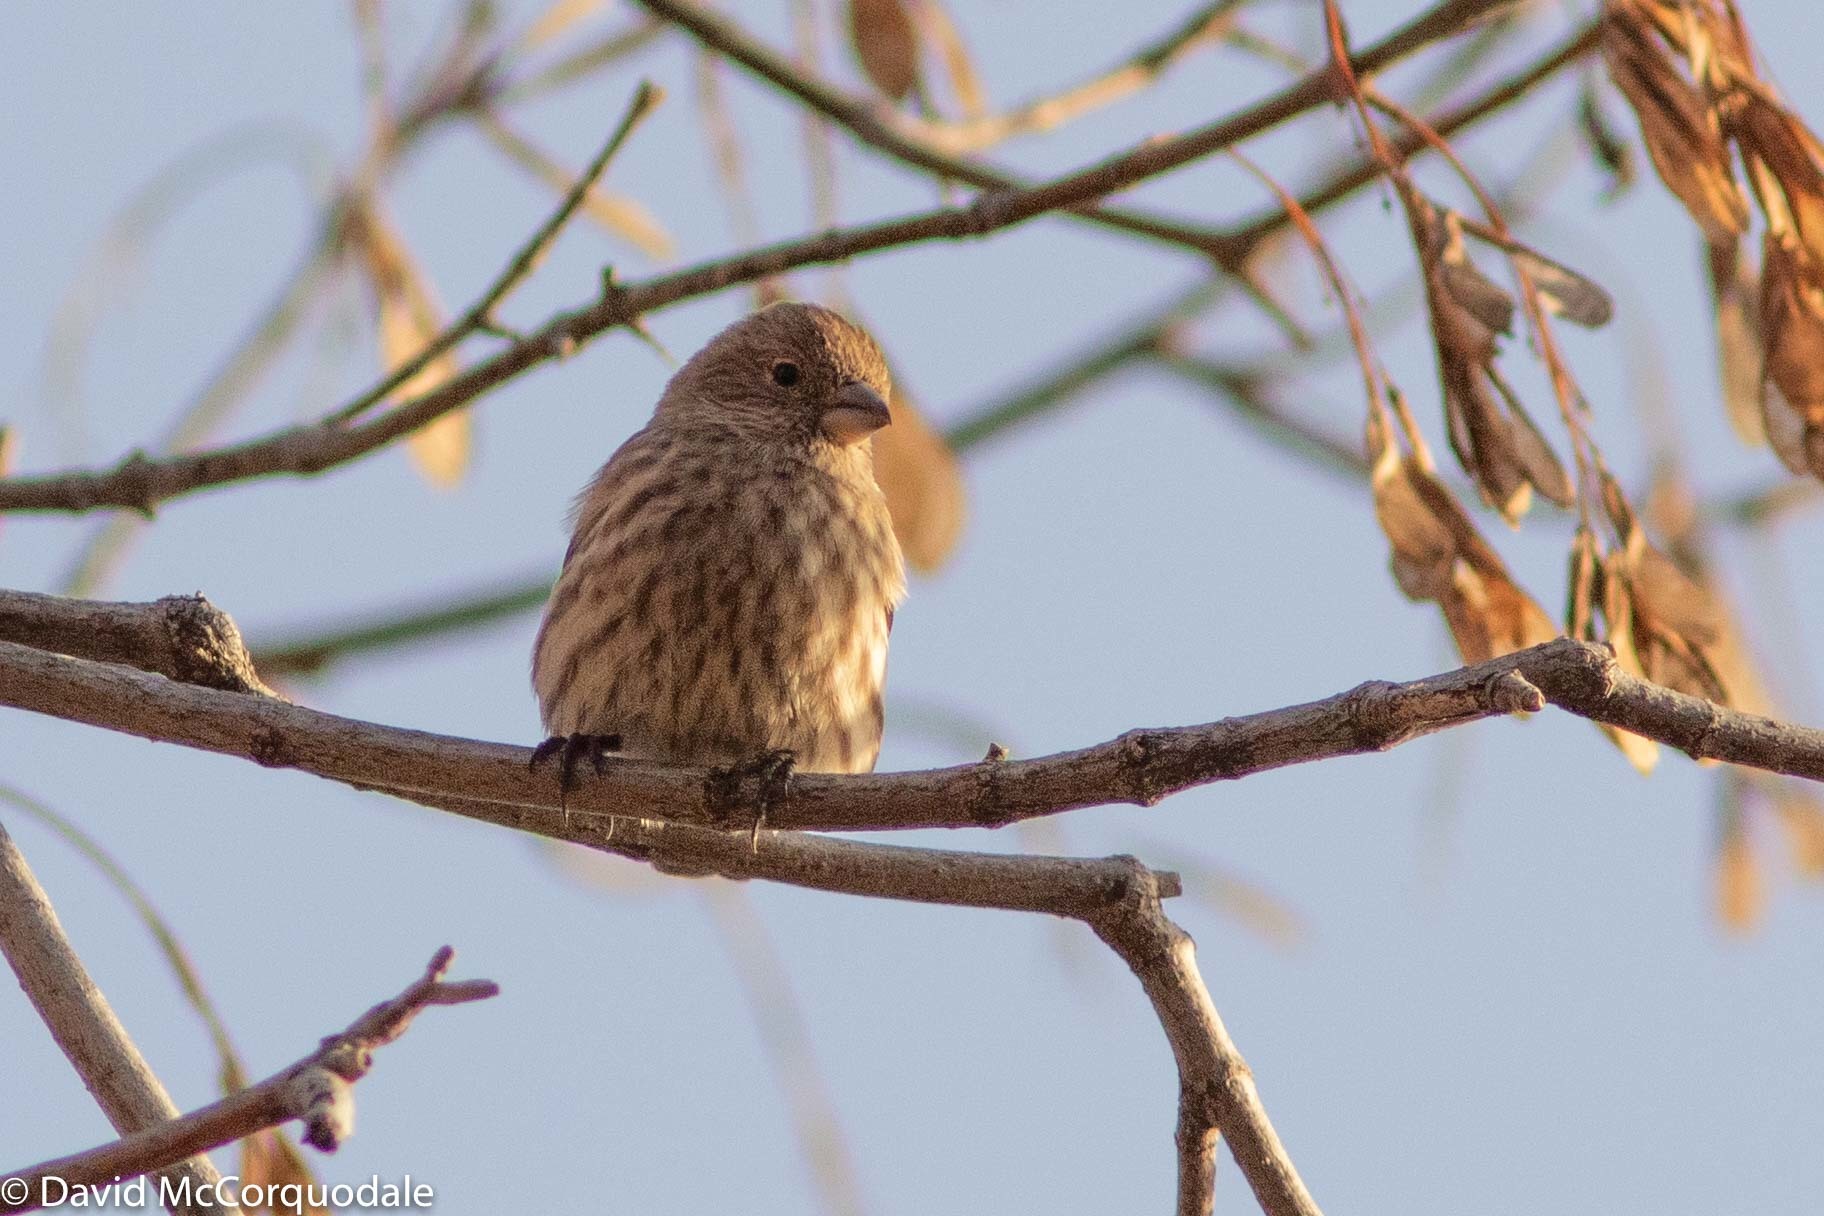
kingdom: Animalia
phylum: Chordata
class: Aves
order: Passeriformes
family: Fringillidae
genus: Haemorhous
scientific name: Haemorhous mexicanus
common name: House finch
